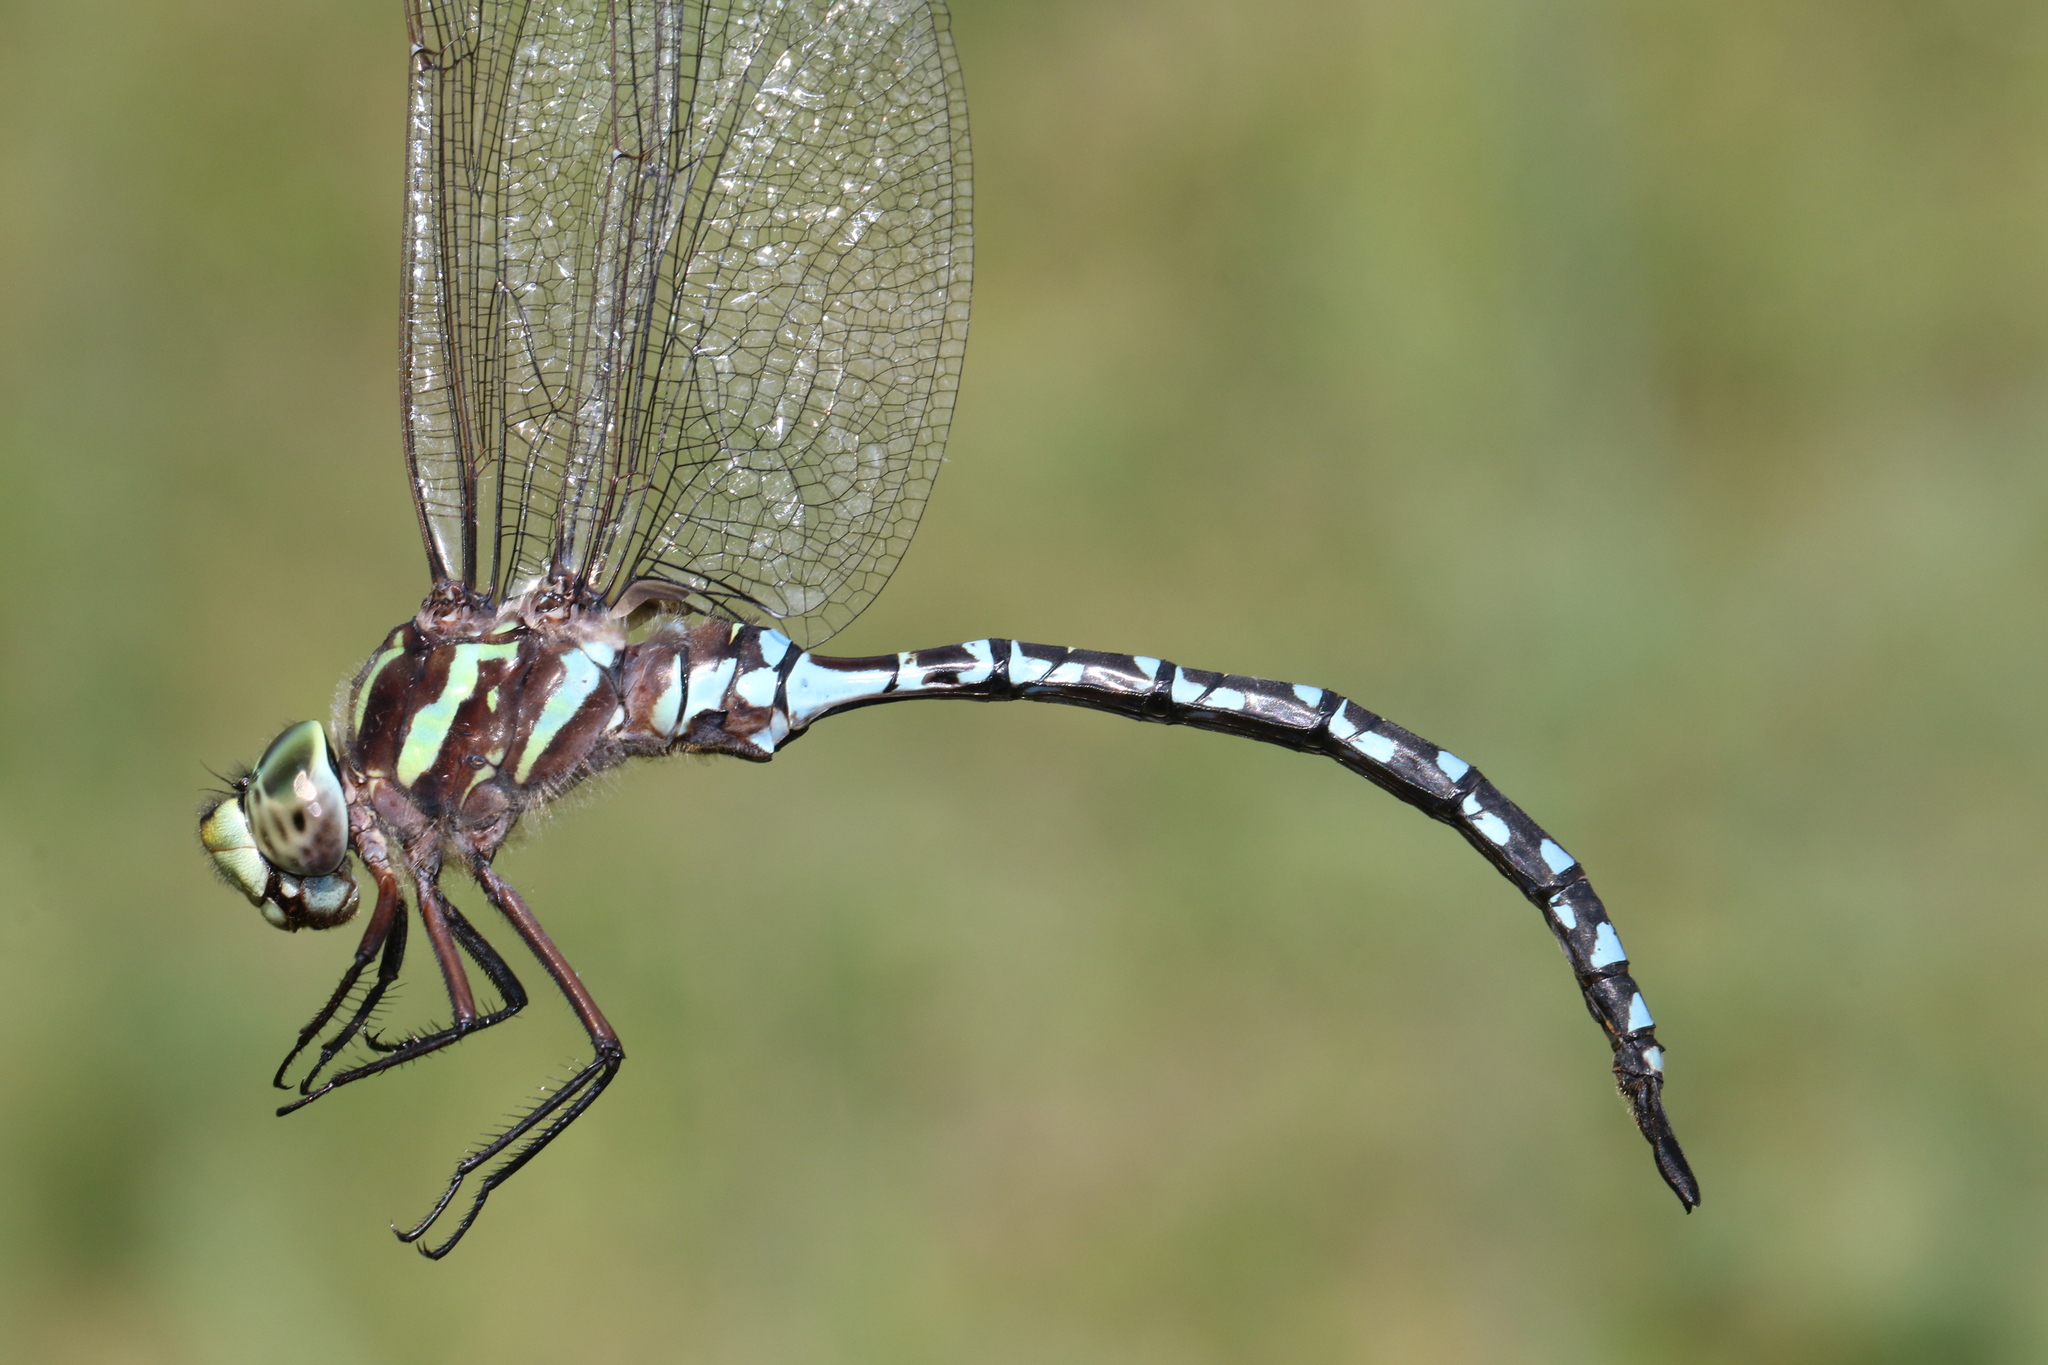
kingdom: Animalia
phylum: Arthropoda
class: Insecta
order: Odonata
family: Aeshnidae
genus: Aeshna
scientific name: Aeshna verticalis
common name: Green-striped darner
